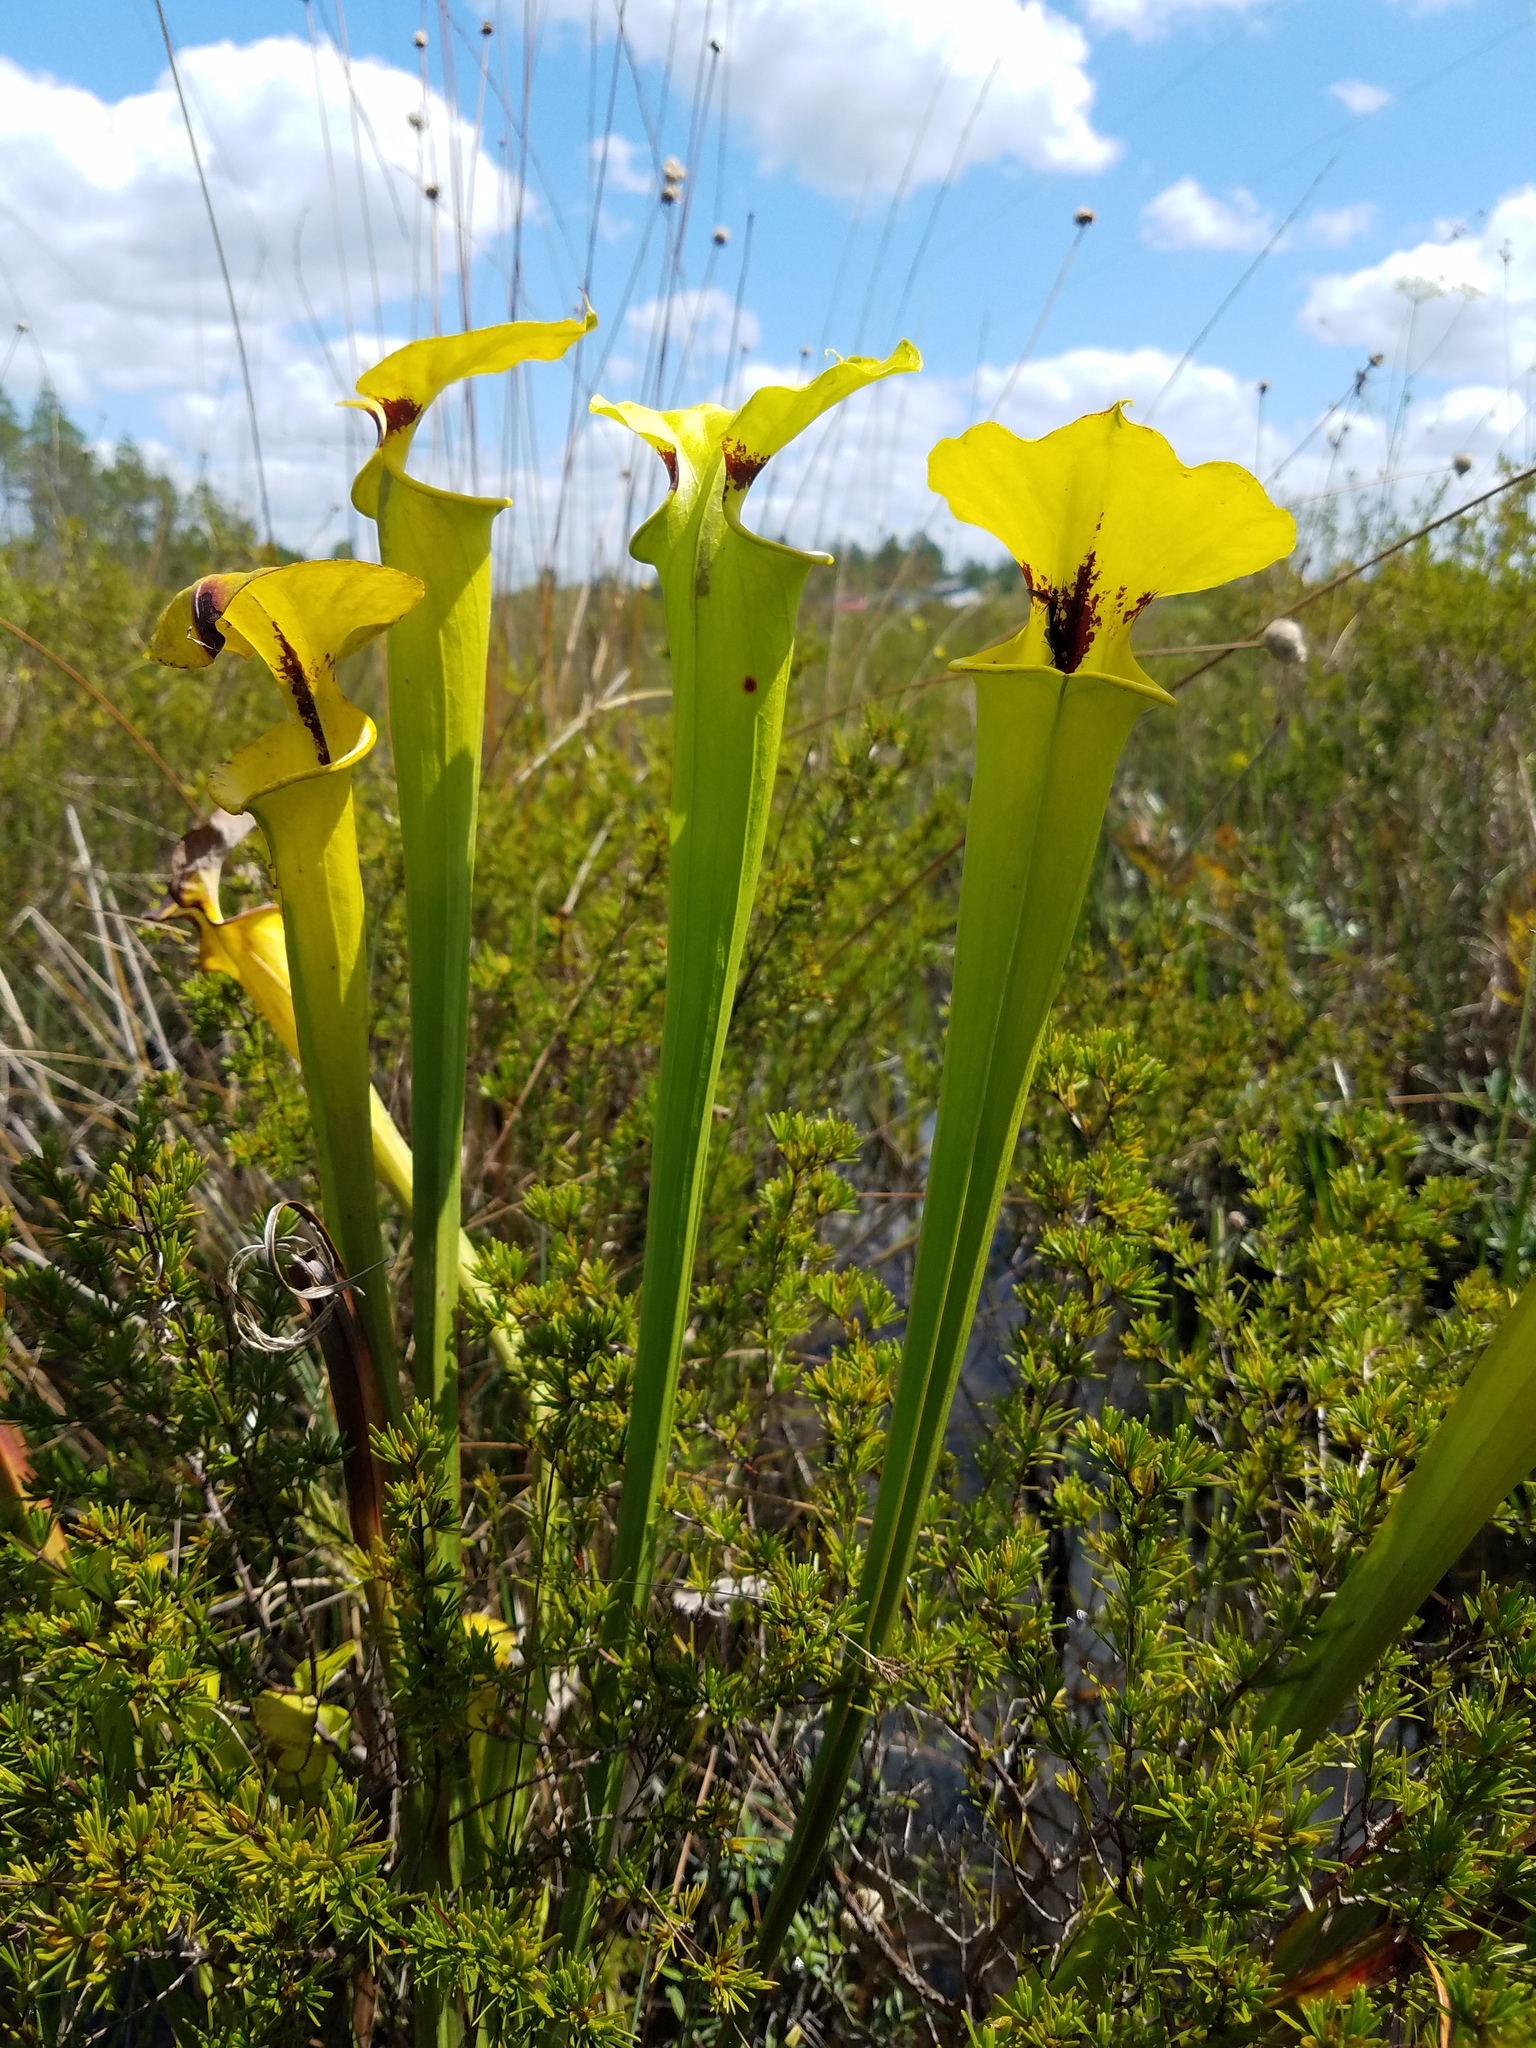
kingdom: Plantae
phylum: Tracheophyta
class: Magnoliopsida
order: Ericales
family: Sarraceniaceae
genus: Sarracenia
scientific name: Sarracenia flava
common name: Trumpets
